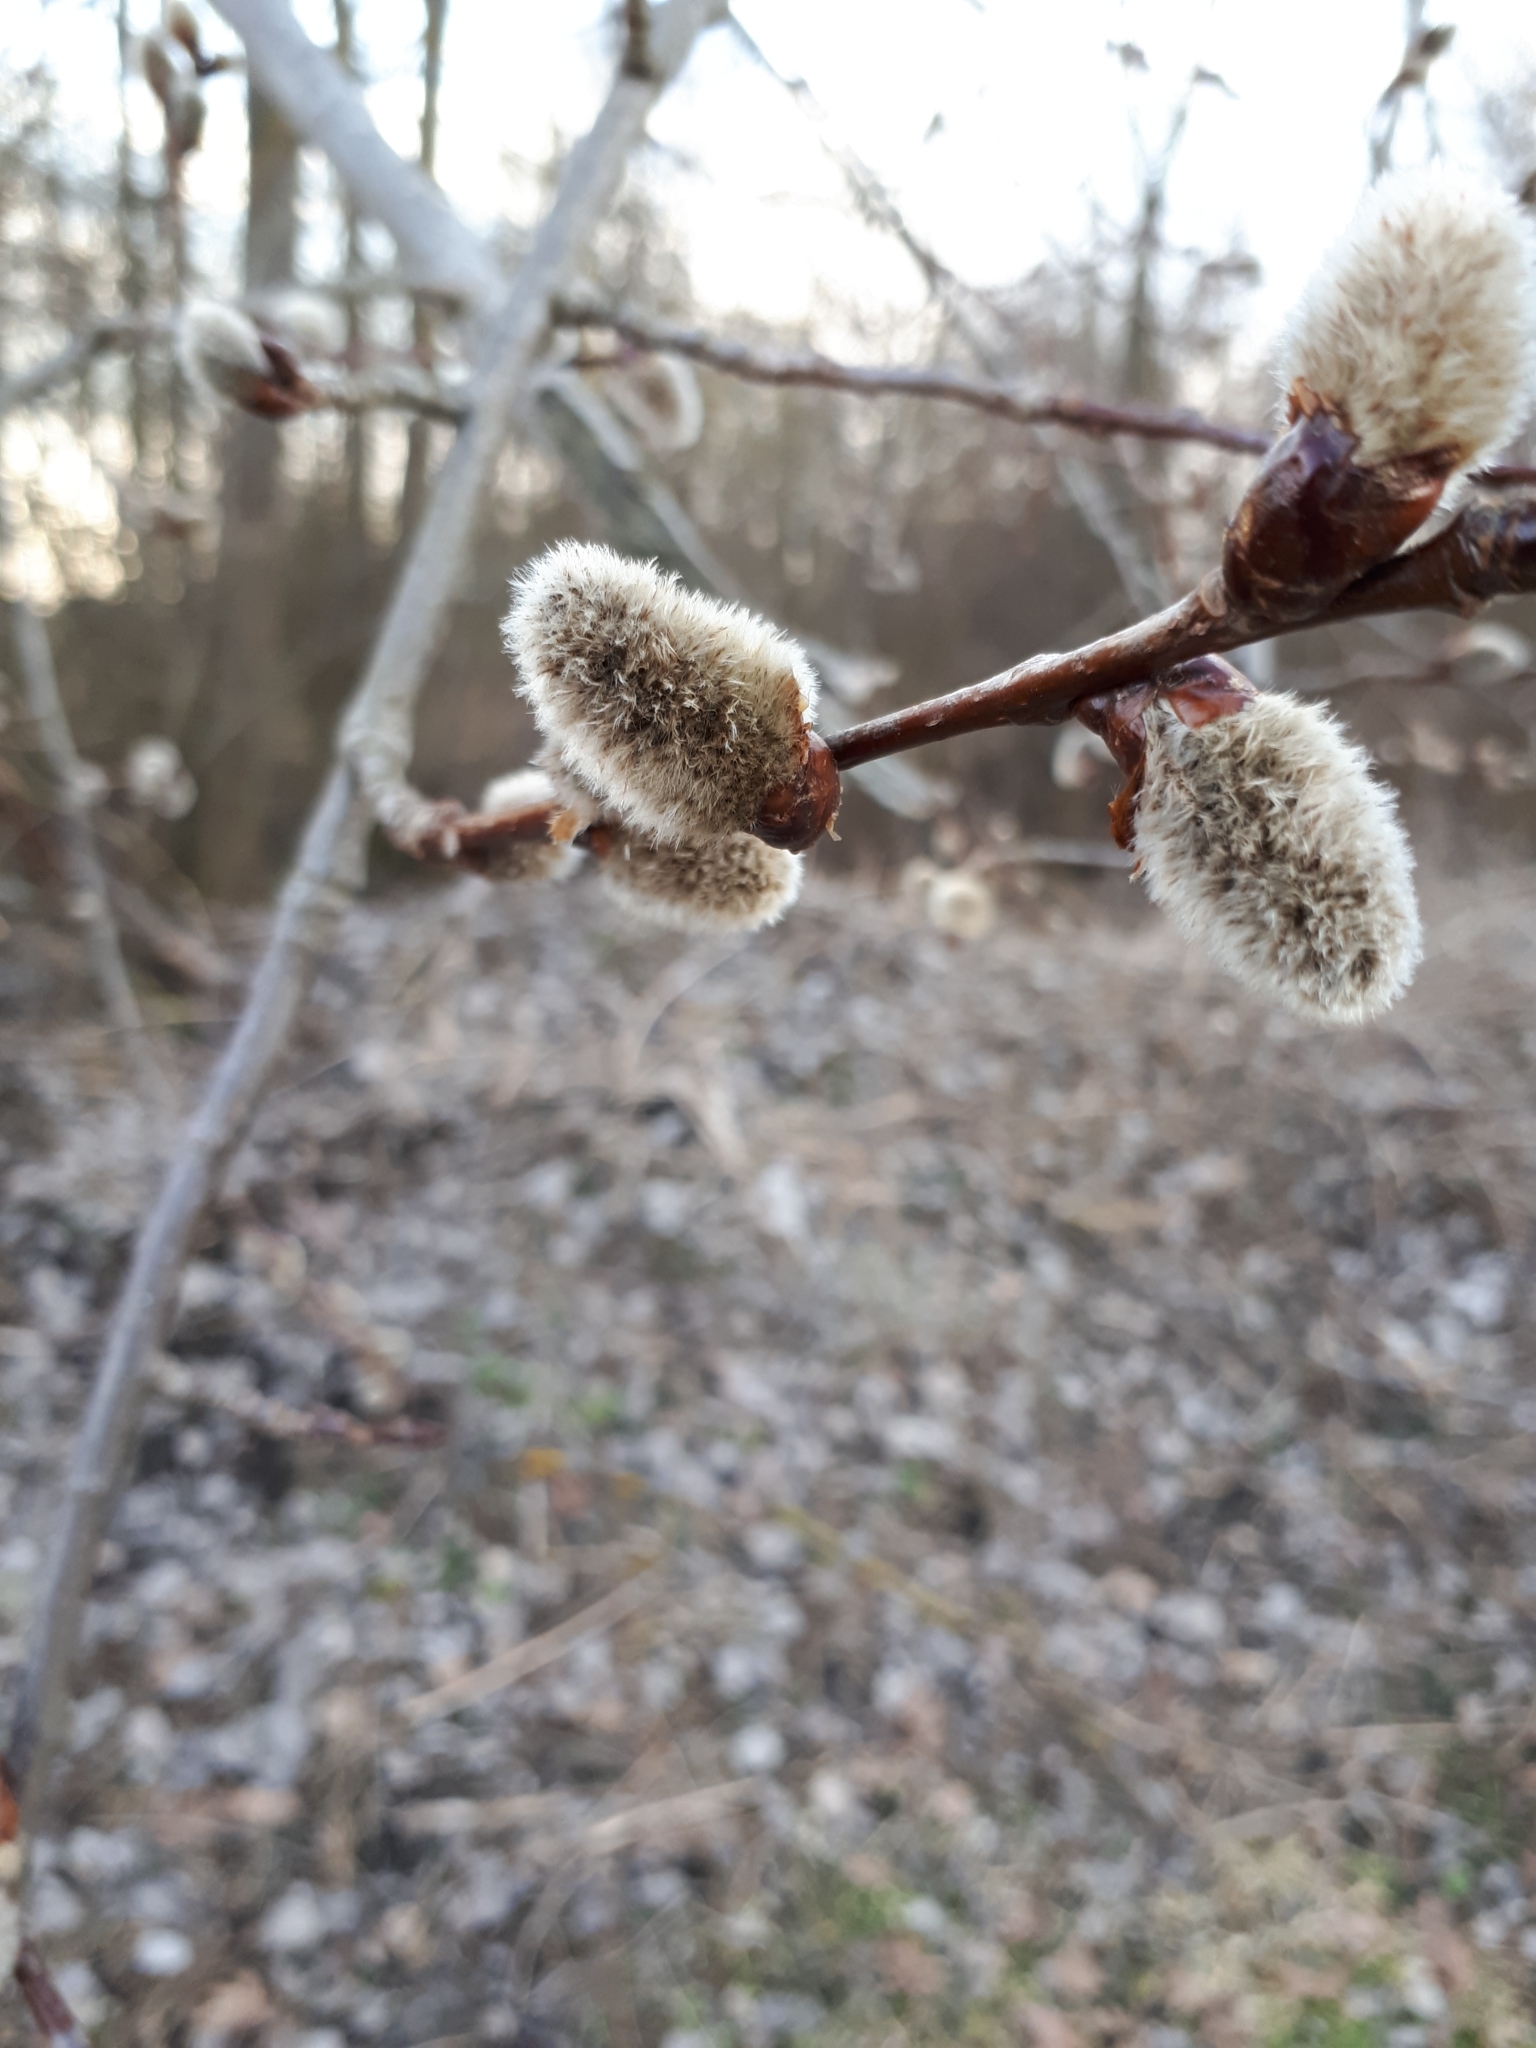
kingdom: Plantae
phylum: Tracheophyta
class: Magnoliopsida
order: Malpighiales
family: Salicaceae
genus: Populus
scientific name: Populus tremula
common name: European aspen
